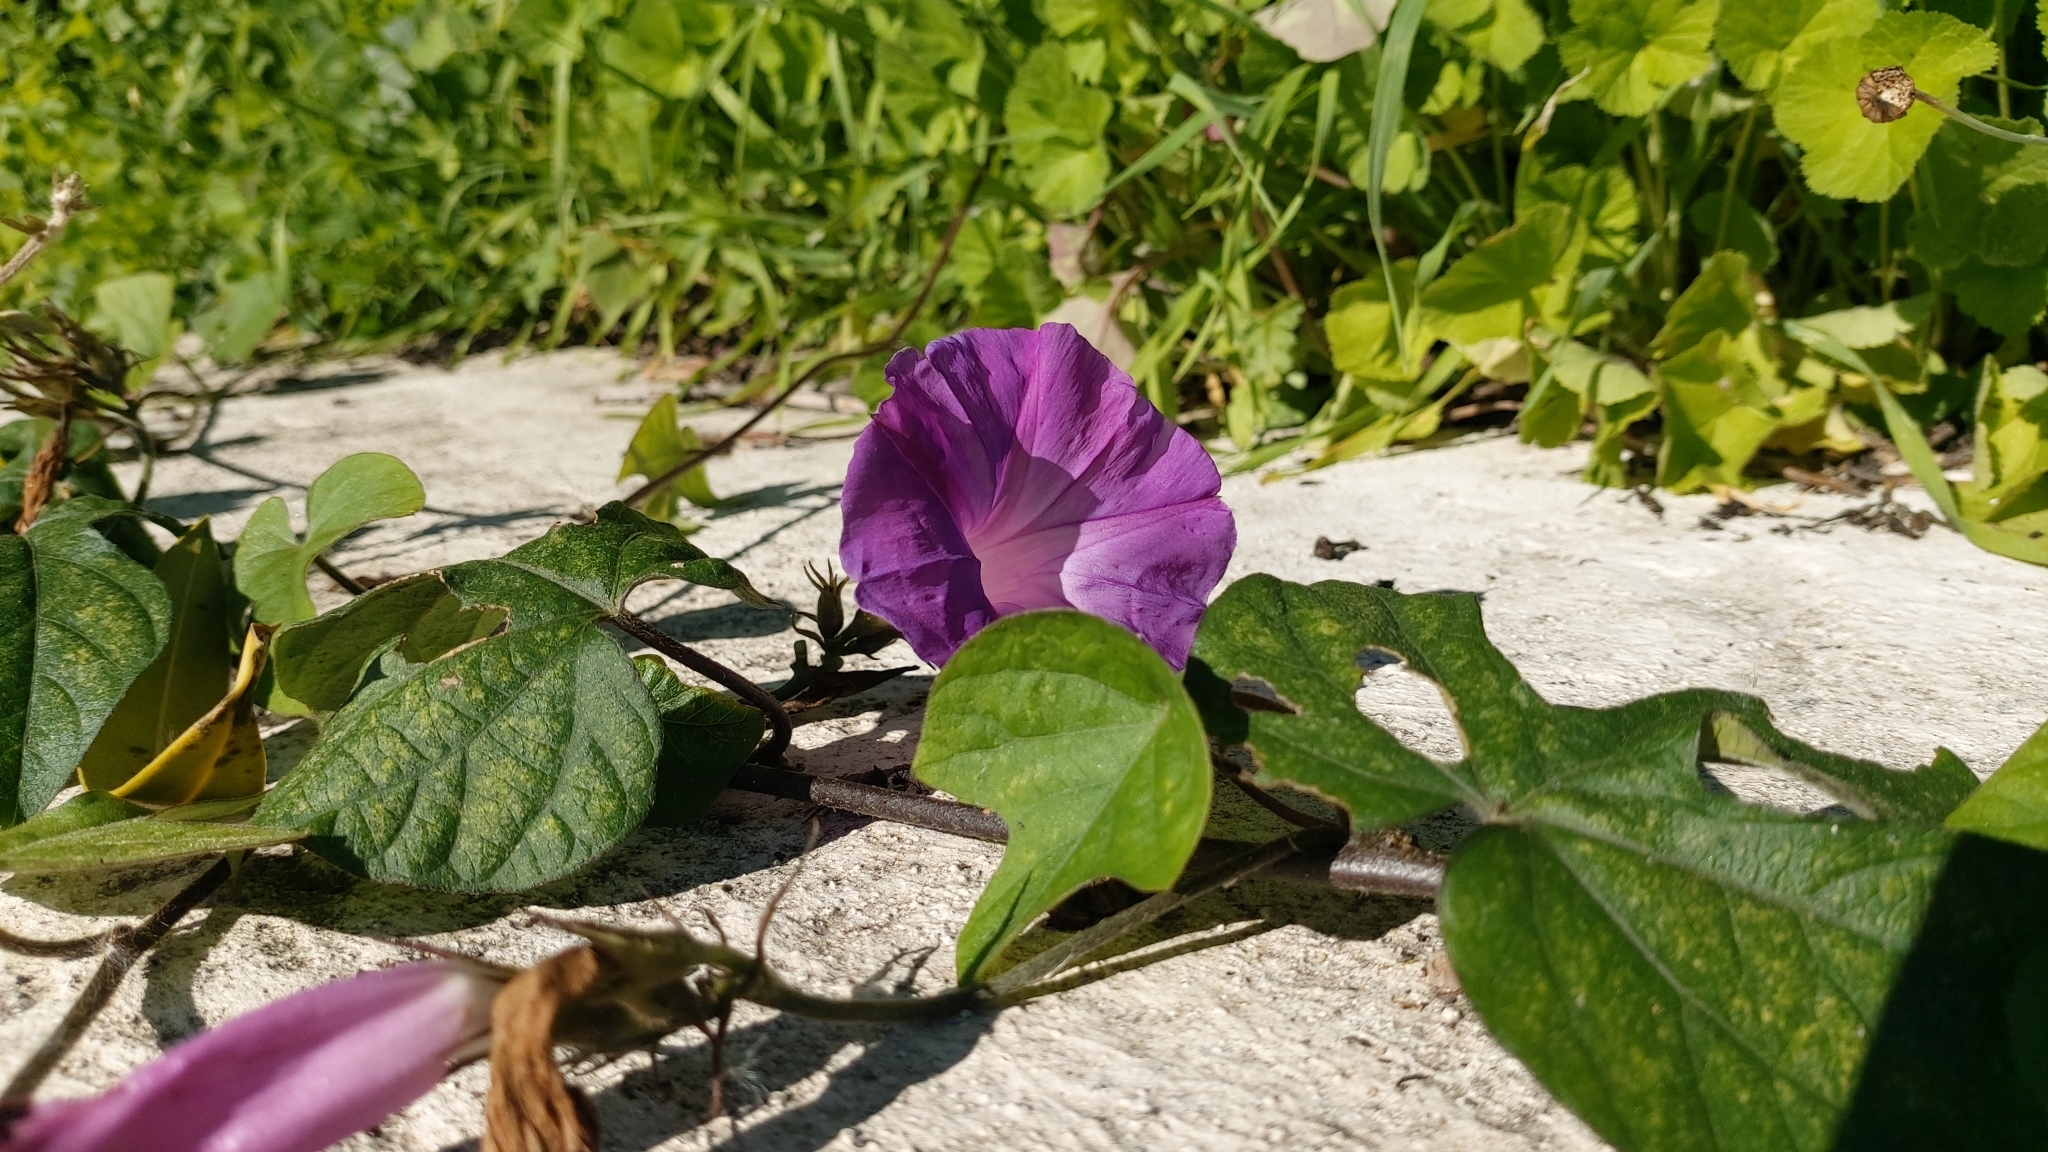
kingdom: Plantae
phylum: Tracheophyta
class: Magnoliopsida
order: Solanales
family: Convolvulaceae
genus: Ipomoea
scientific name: Ipomoea indica
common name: Blue dawnflower
